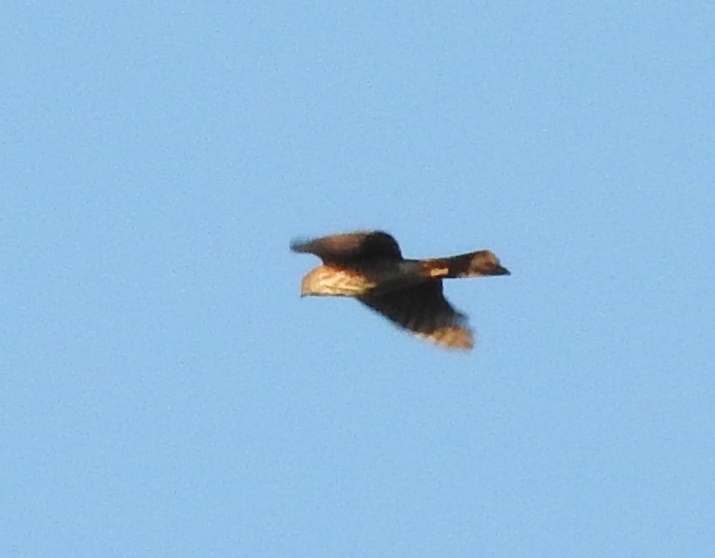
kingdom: Animalia
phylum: Chordata
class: Aves
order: Accipitriformes
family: Accipitridae
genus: Accipiter
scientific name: Accipiter striatus
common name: Sharp-shinned hawk
